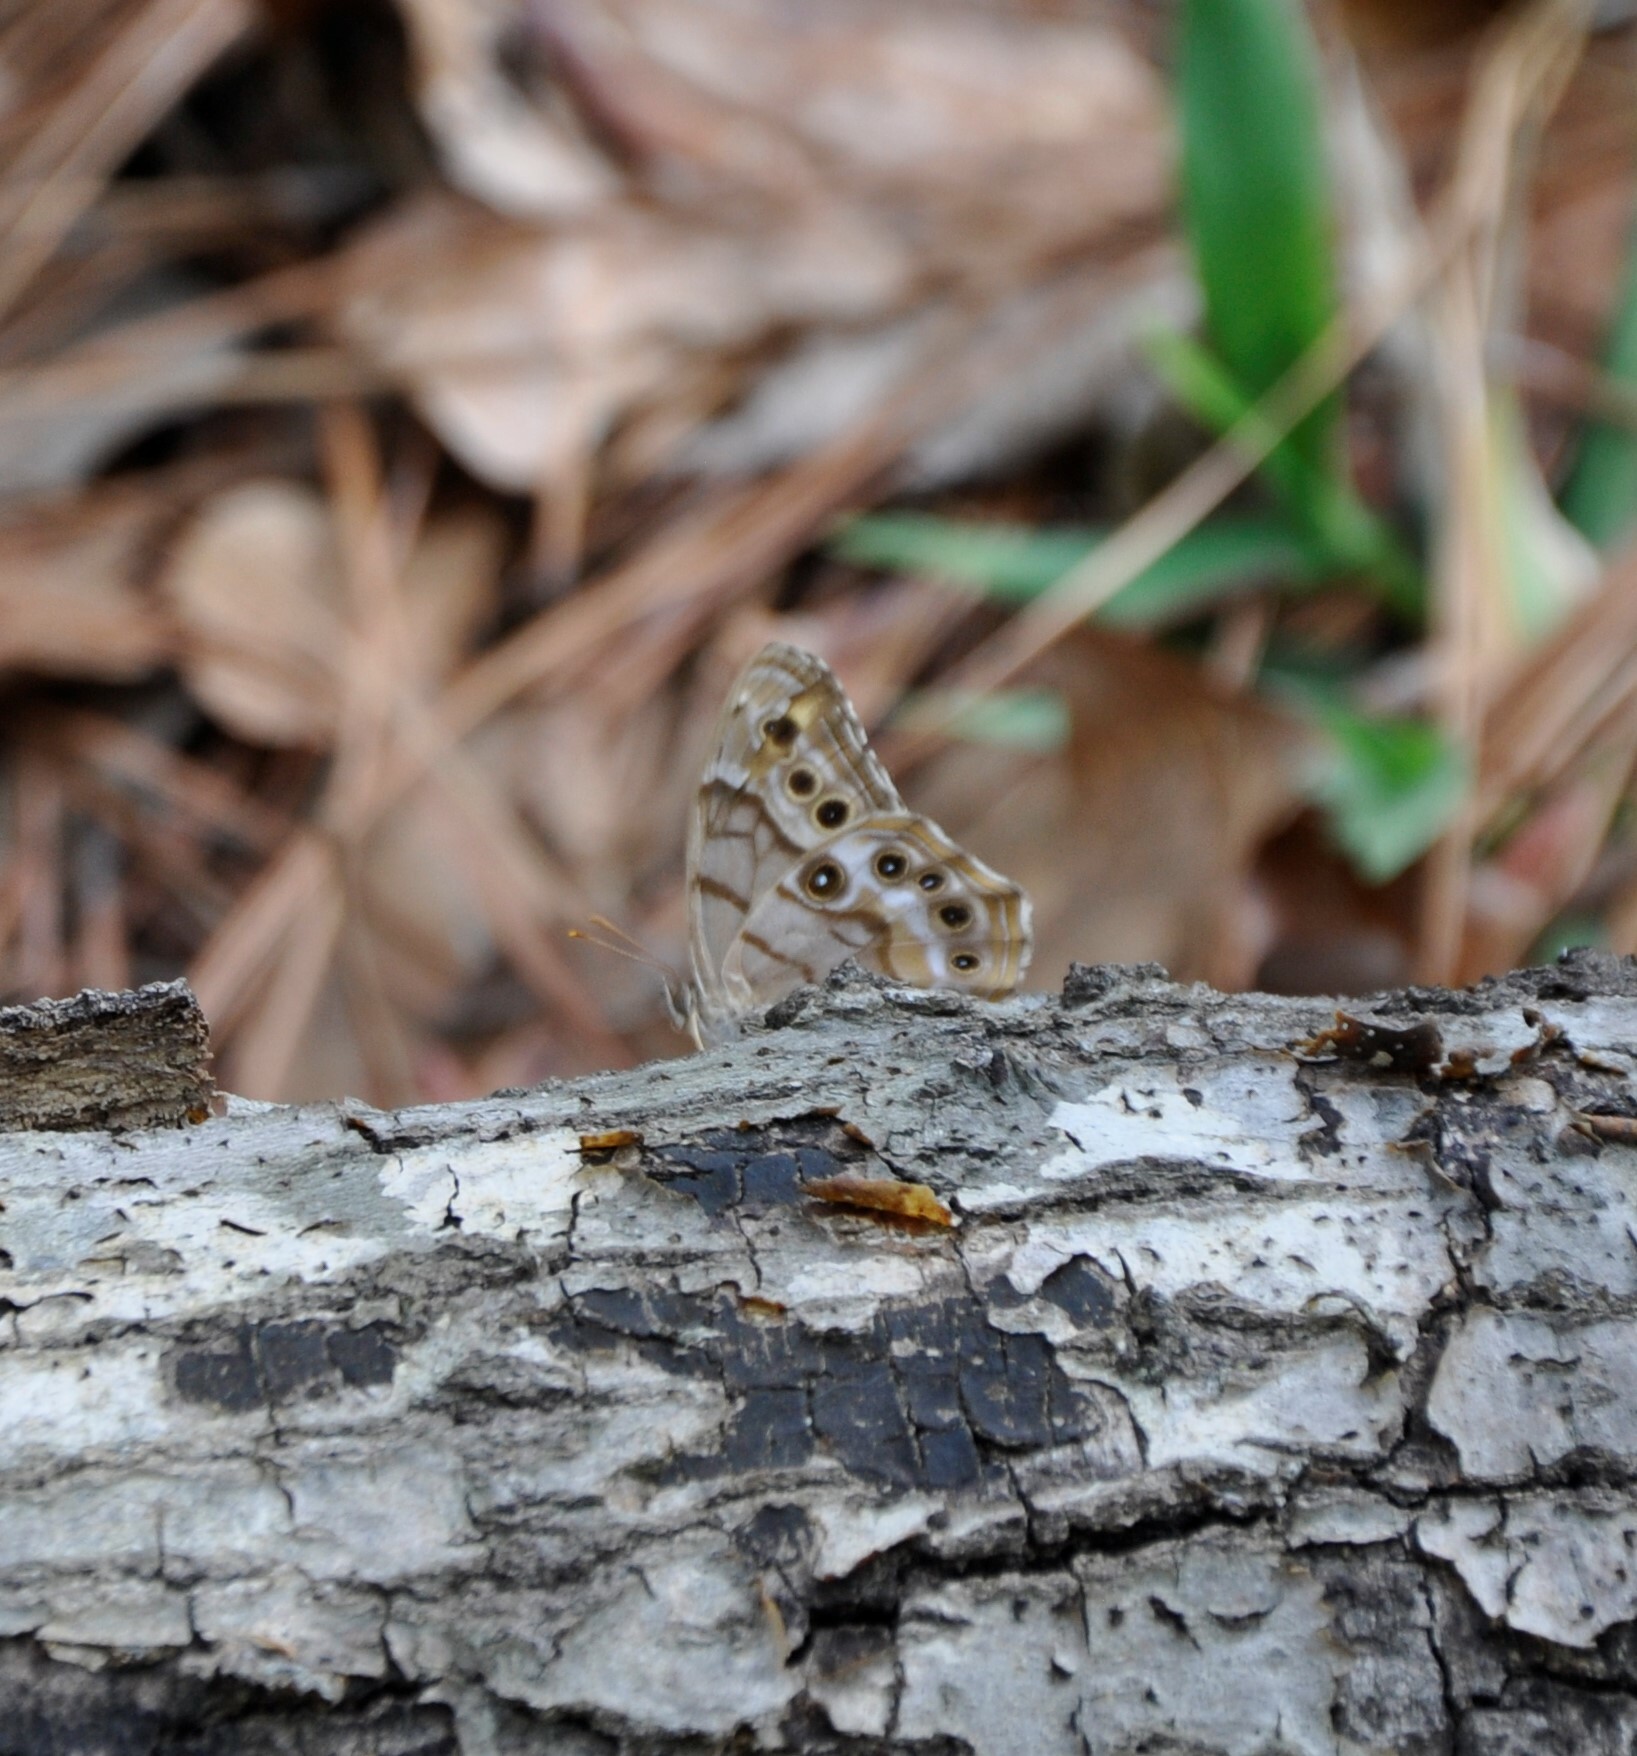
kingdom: Animalia
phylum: Arthropoda
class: Insecta
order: Lepidoptera
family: Nymphalidae
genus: Enodia
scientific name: Enodia portlandia
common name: Southern pearly-eye
